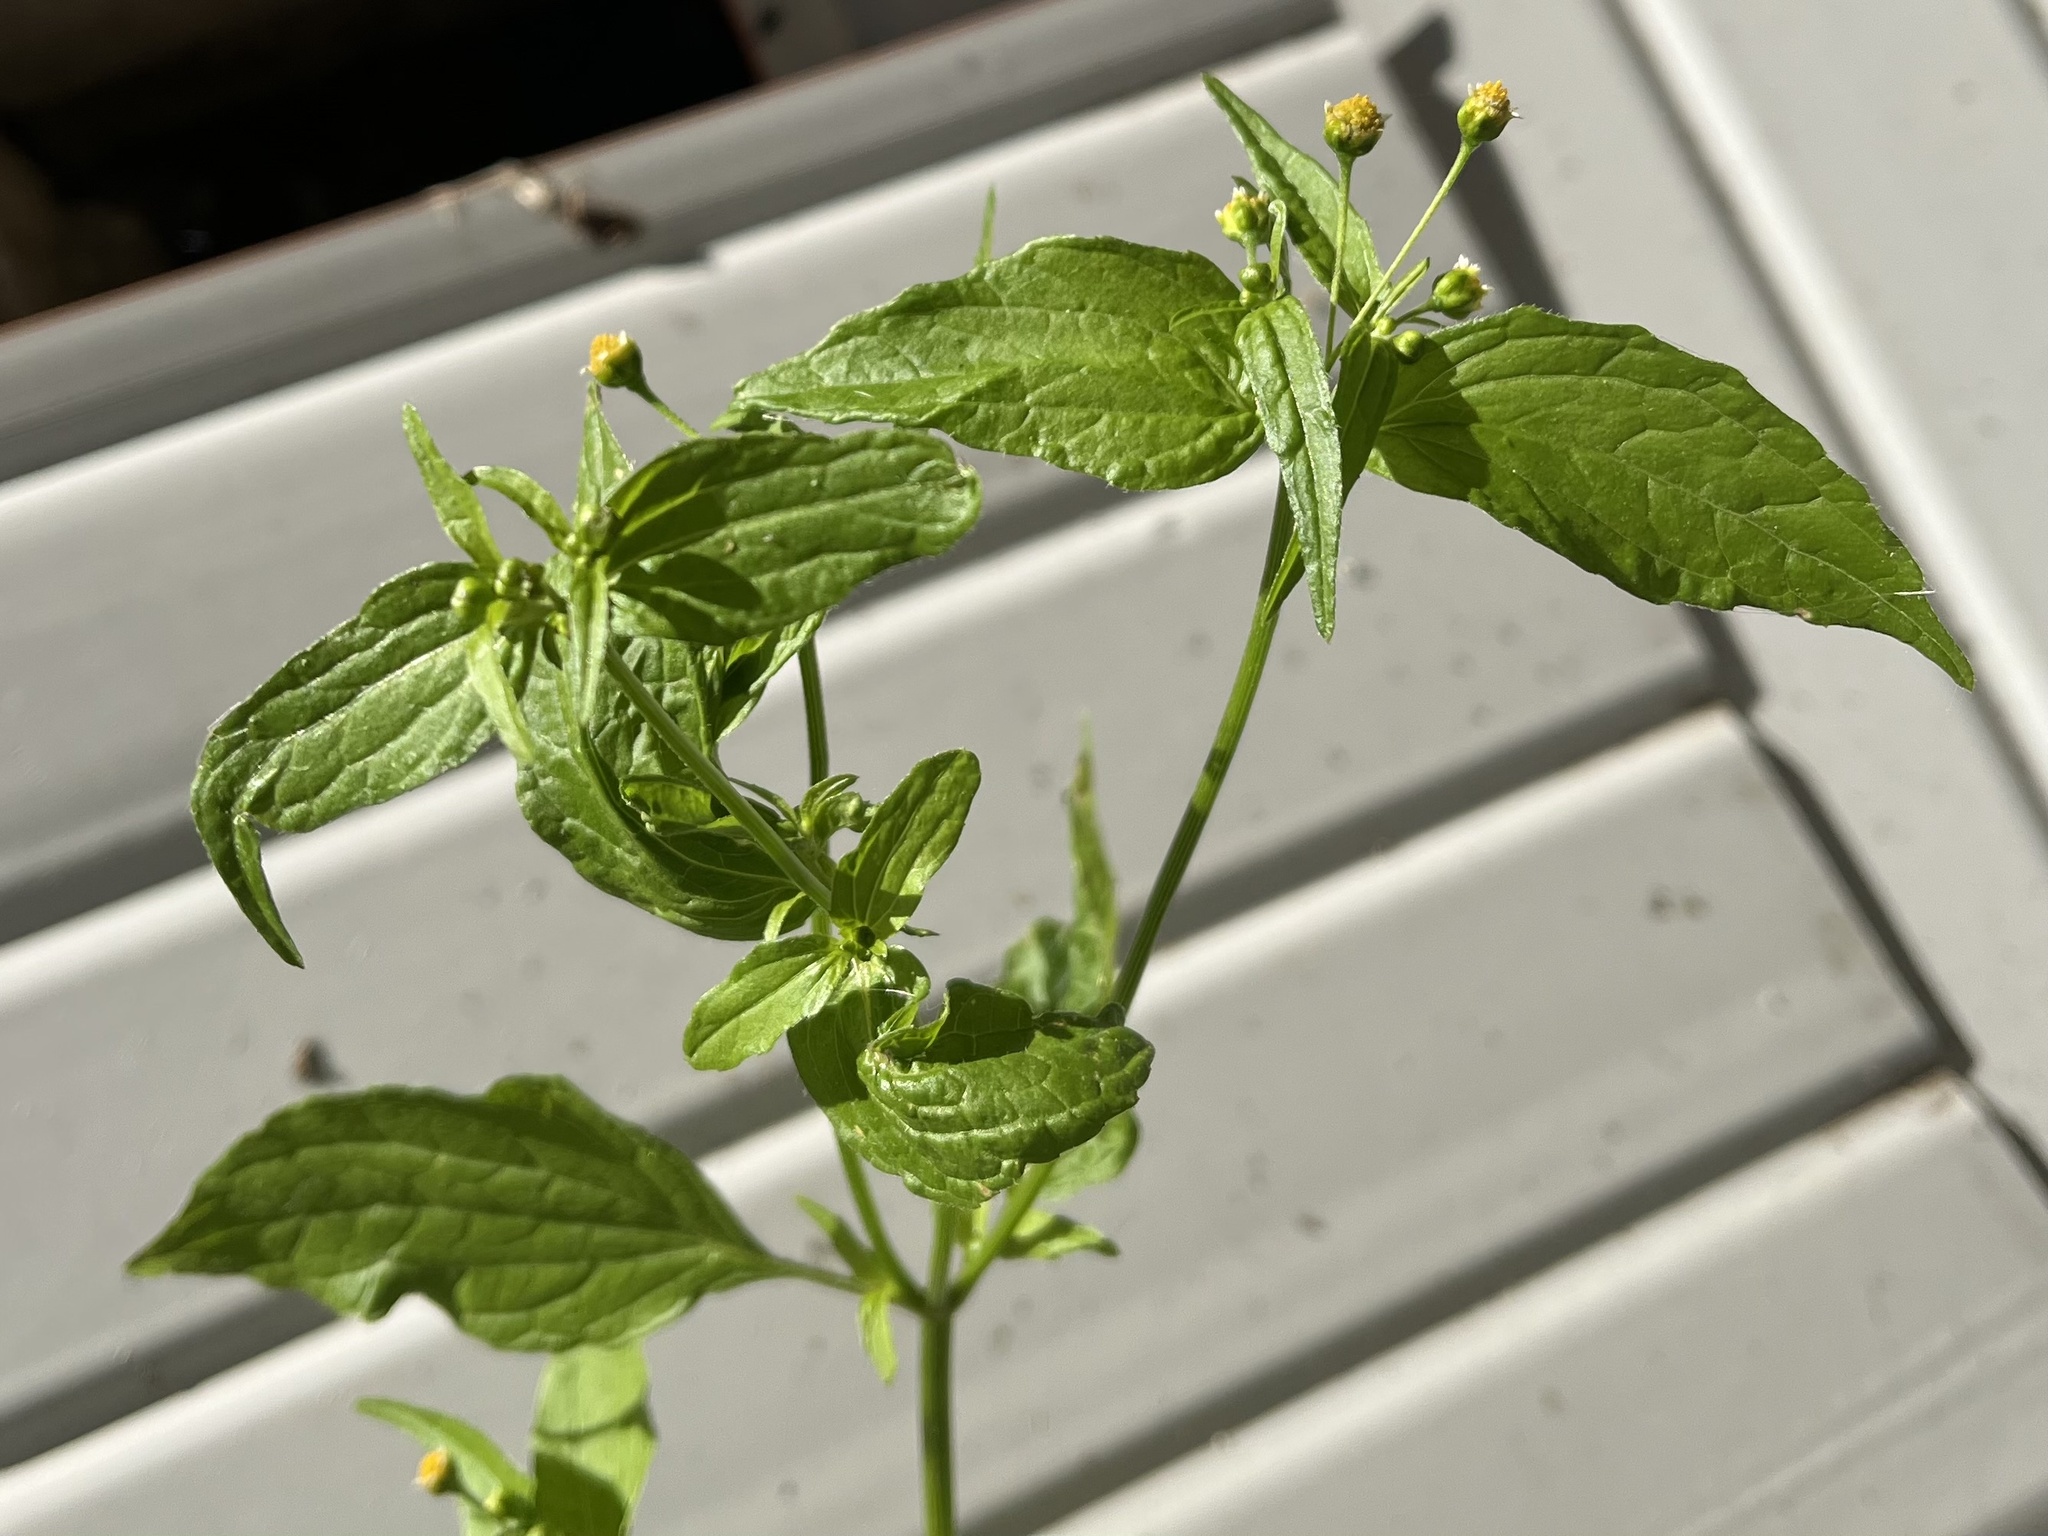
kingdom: Plantae
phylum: Tracheophyta
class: Magnoliopsida
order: Asterales
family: Asteraceae
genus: Galinsoga
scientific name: Galinsoga parviflora
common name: Gallant soldier
